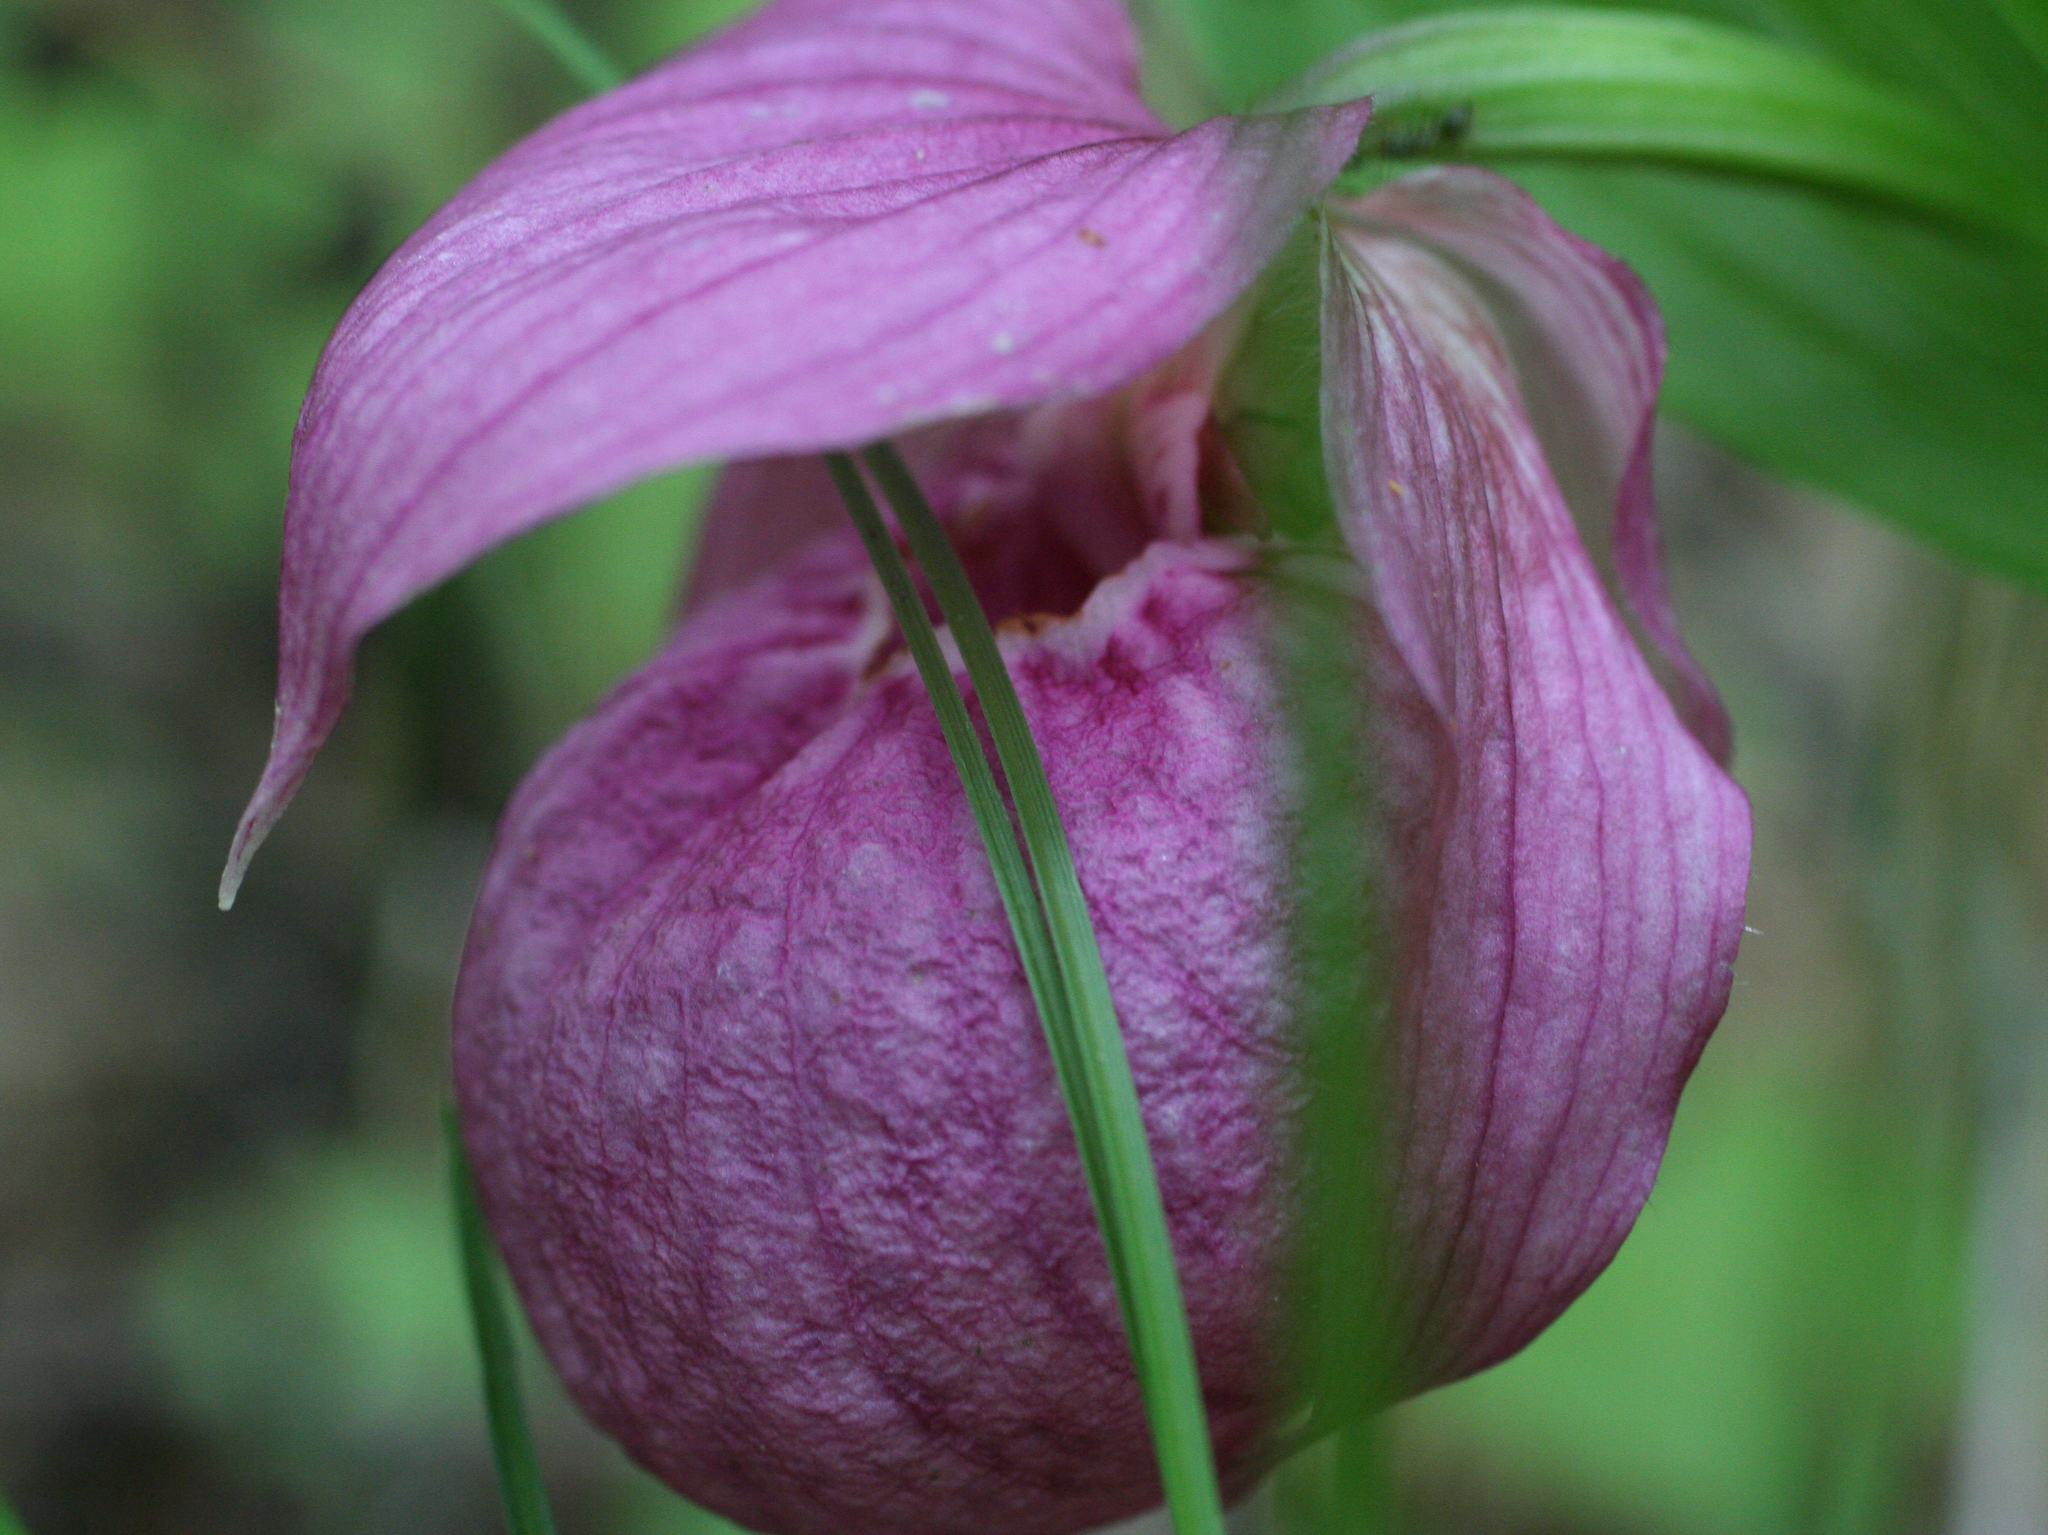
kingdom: Plantae
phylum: Tracheophyta
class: Liliopsida
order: Asparagales
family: Orchidaceae
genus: Cypripedium
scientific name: Cypripedium macranthos
